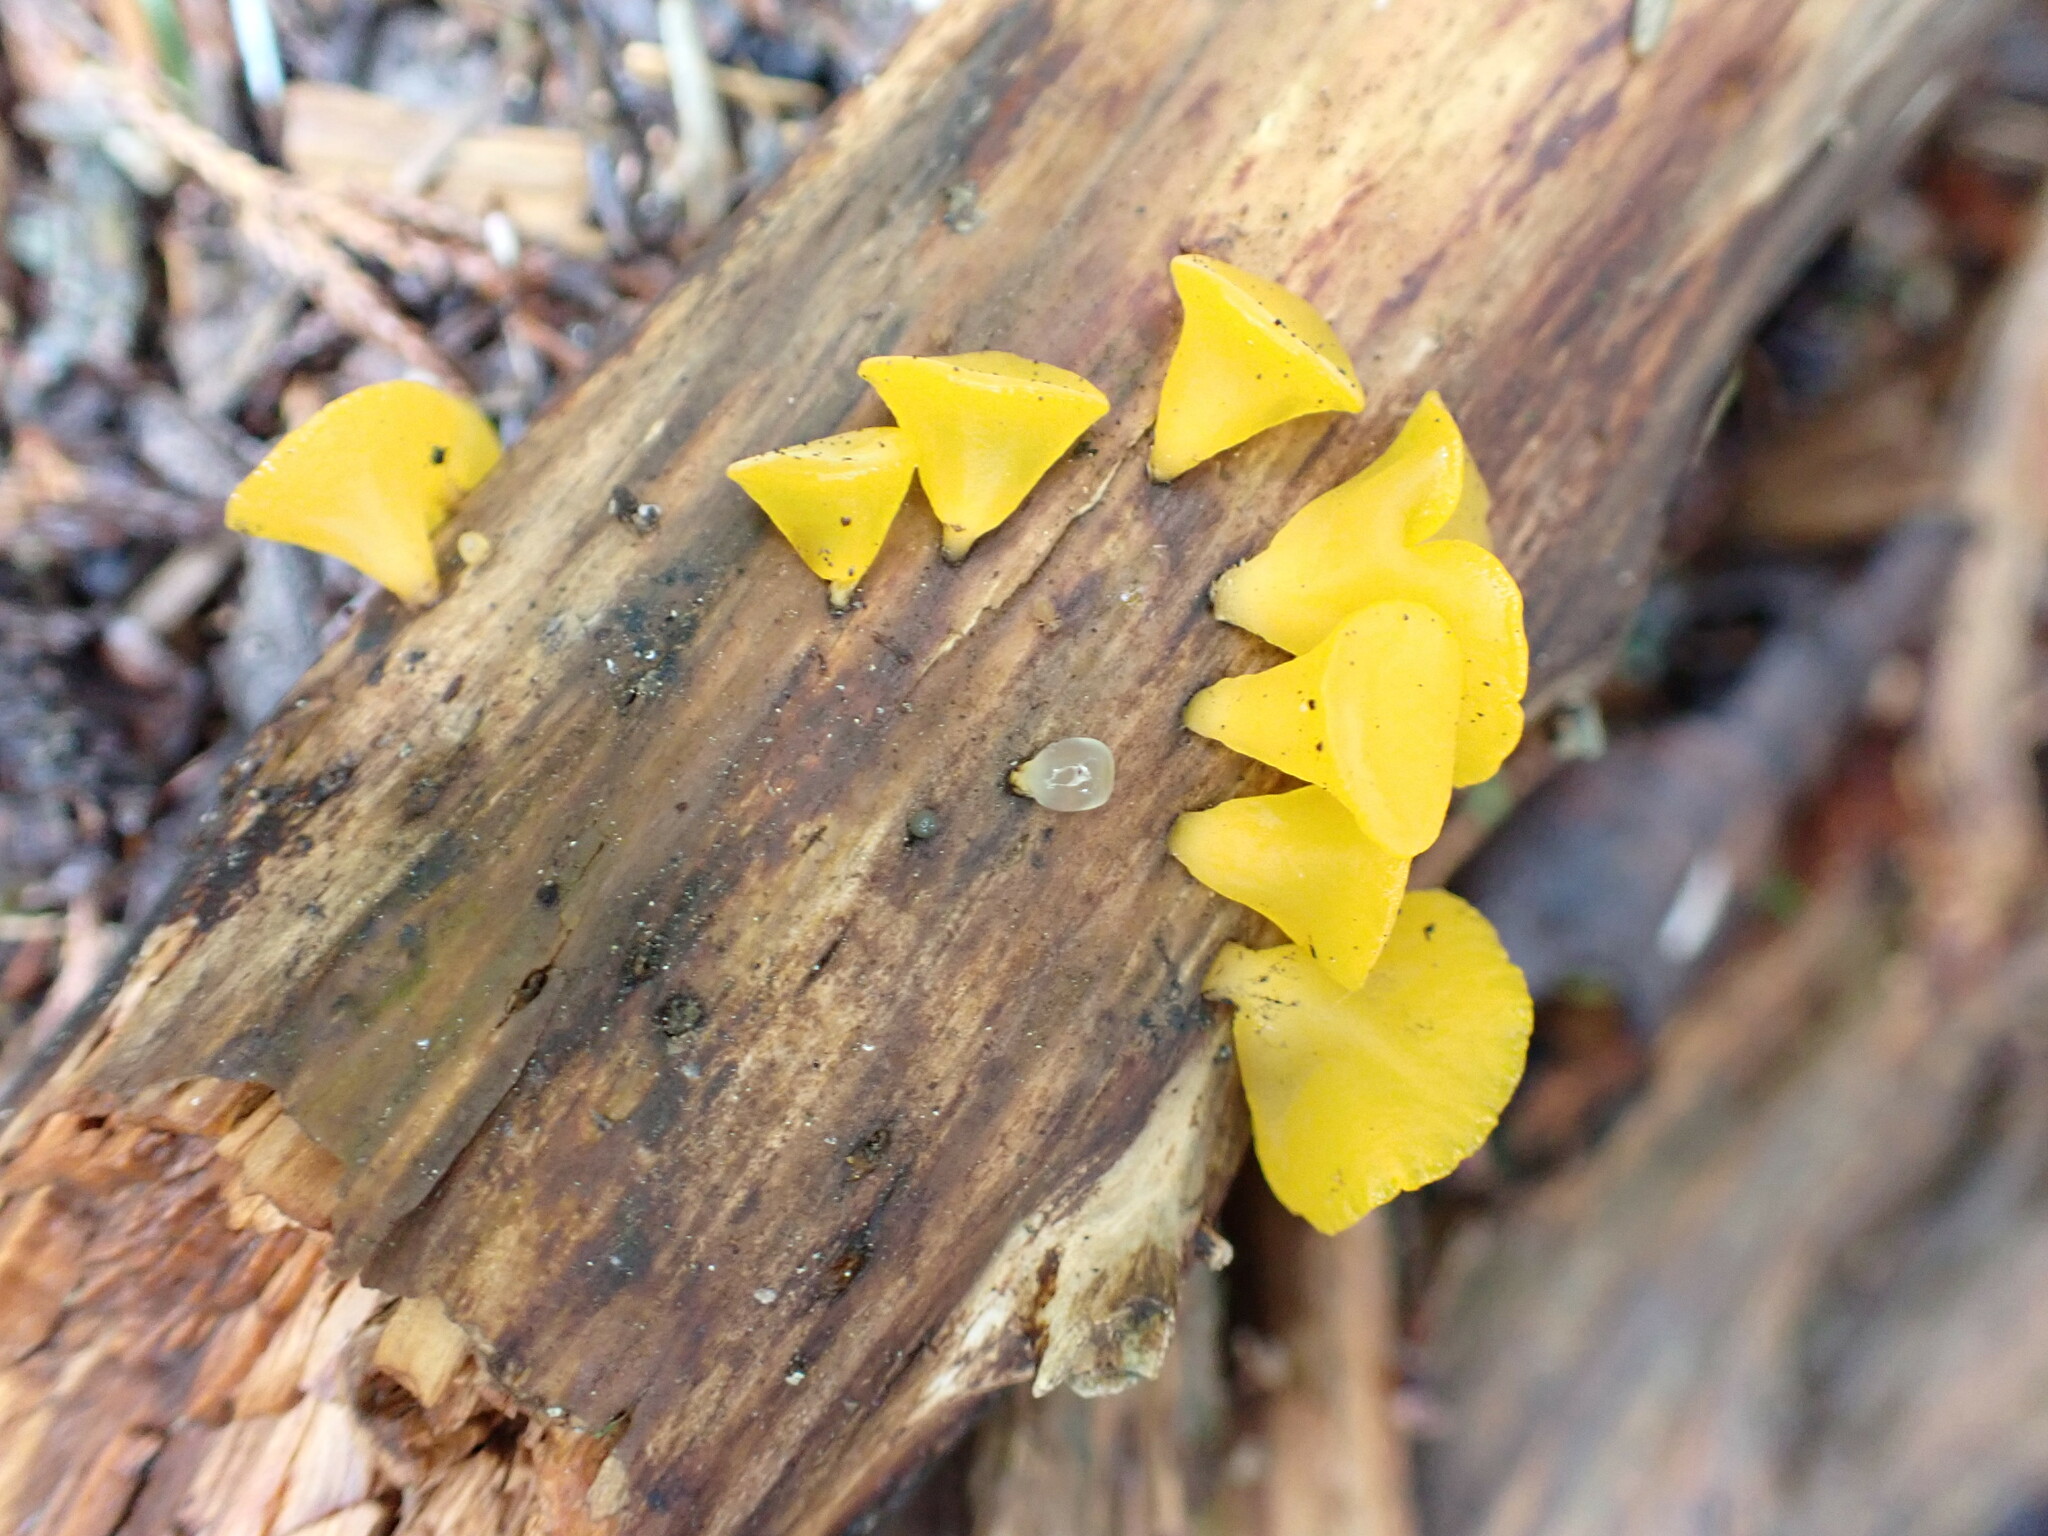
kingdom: Fungi
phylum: Basidiomycota
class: Dacrymycetes
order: Dacrymycetales
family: Dacrymycetaceae
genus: Guepiniopsis
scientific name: Guepiniopsis alpina
